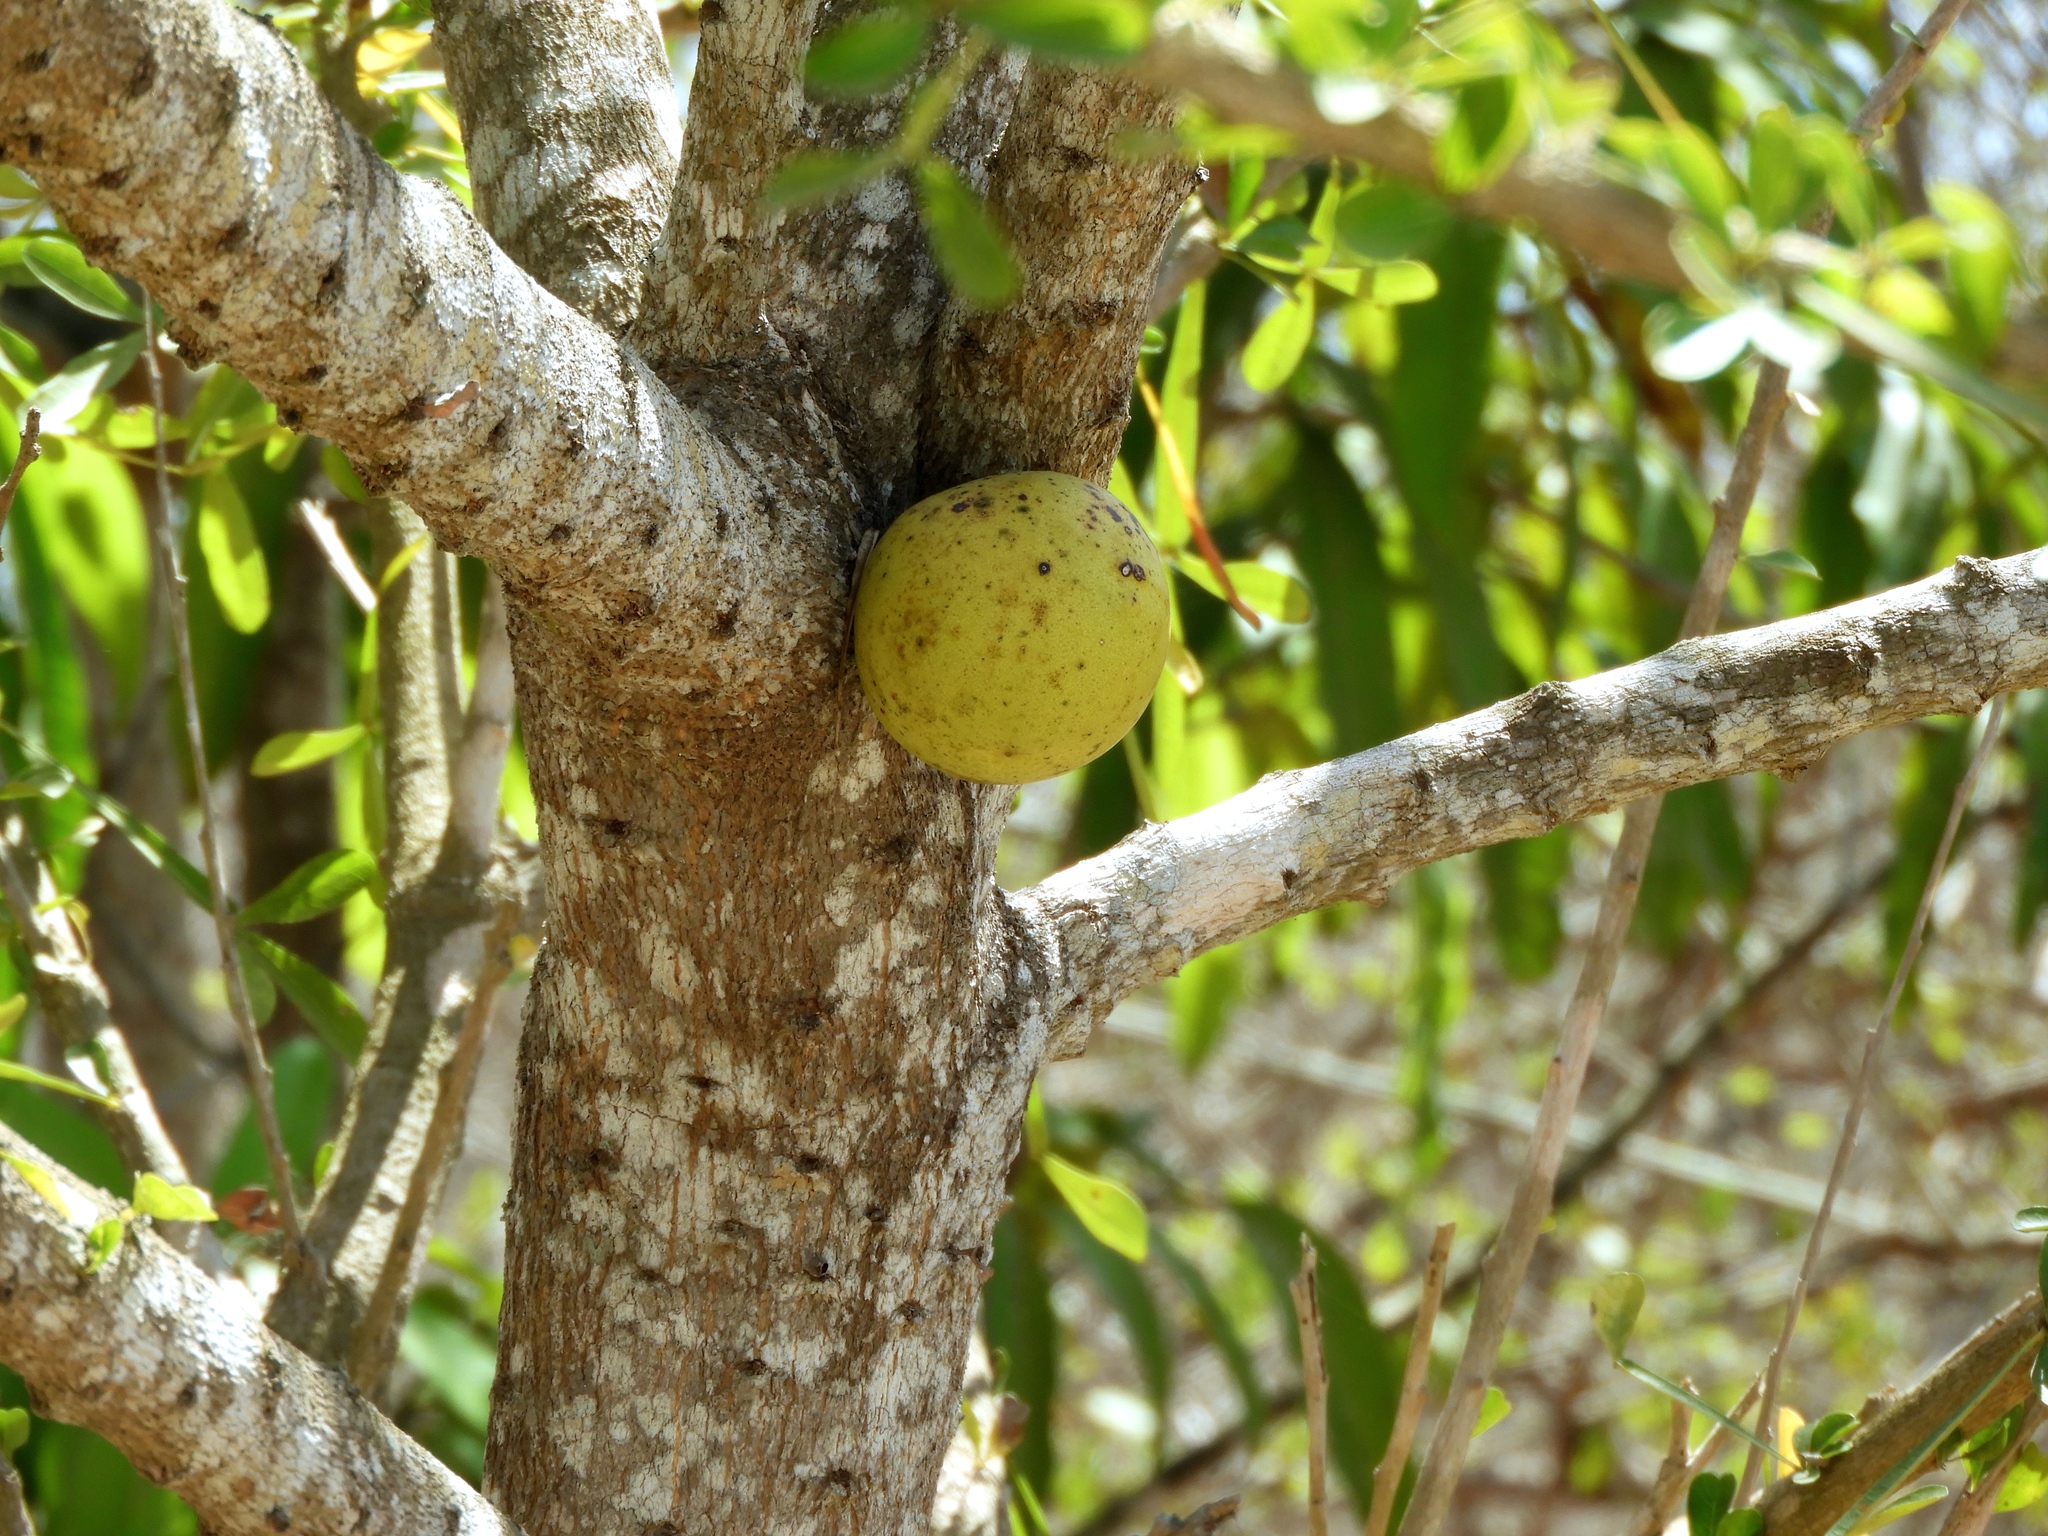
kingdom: Plantae
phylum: Tracheophyta
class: Magnoliopsida
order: Lamiales
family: Bignoniaceae
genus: Crescentia
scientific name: Crescentia alata
